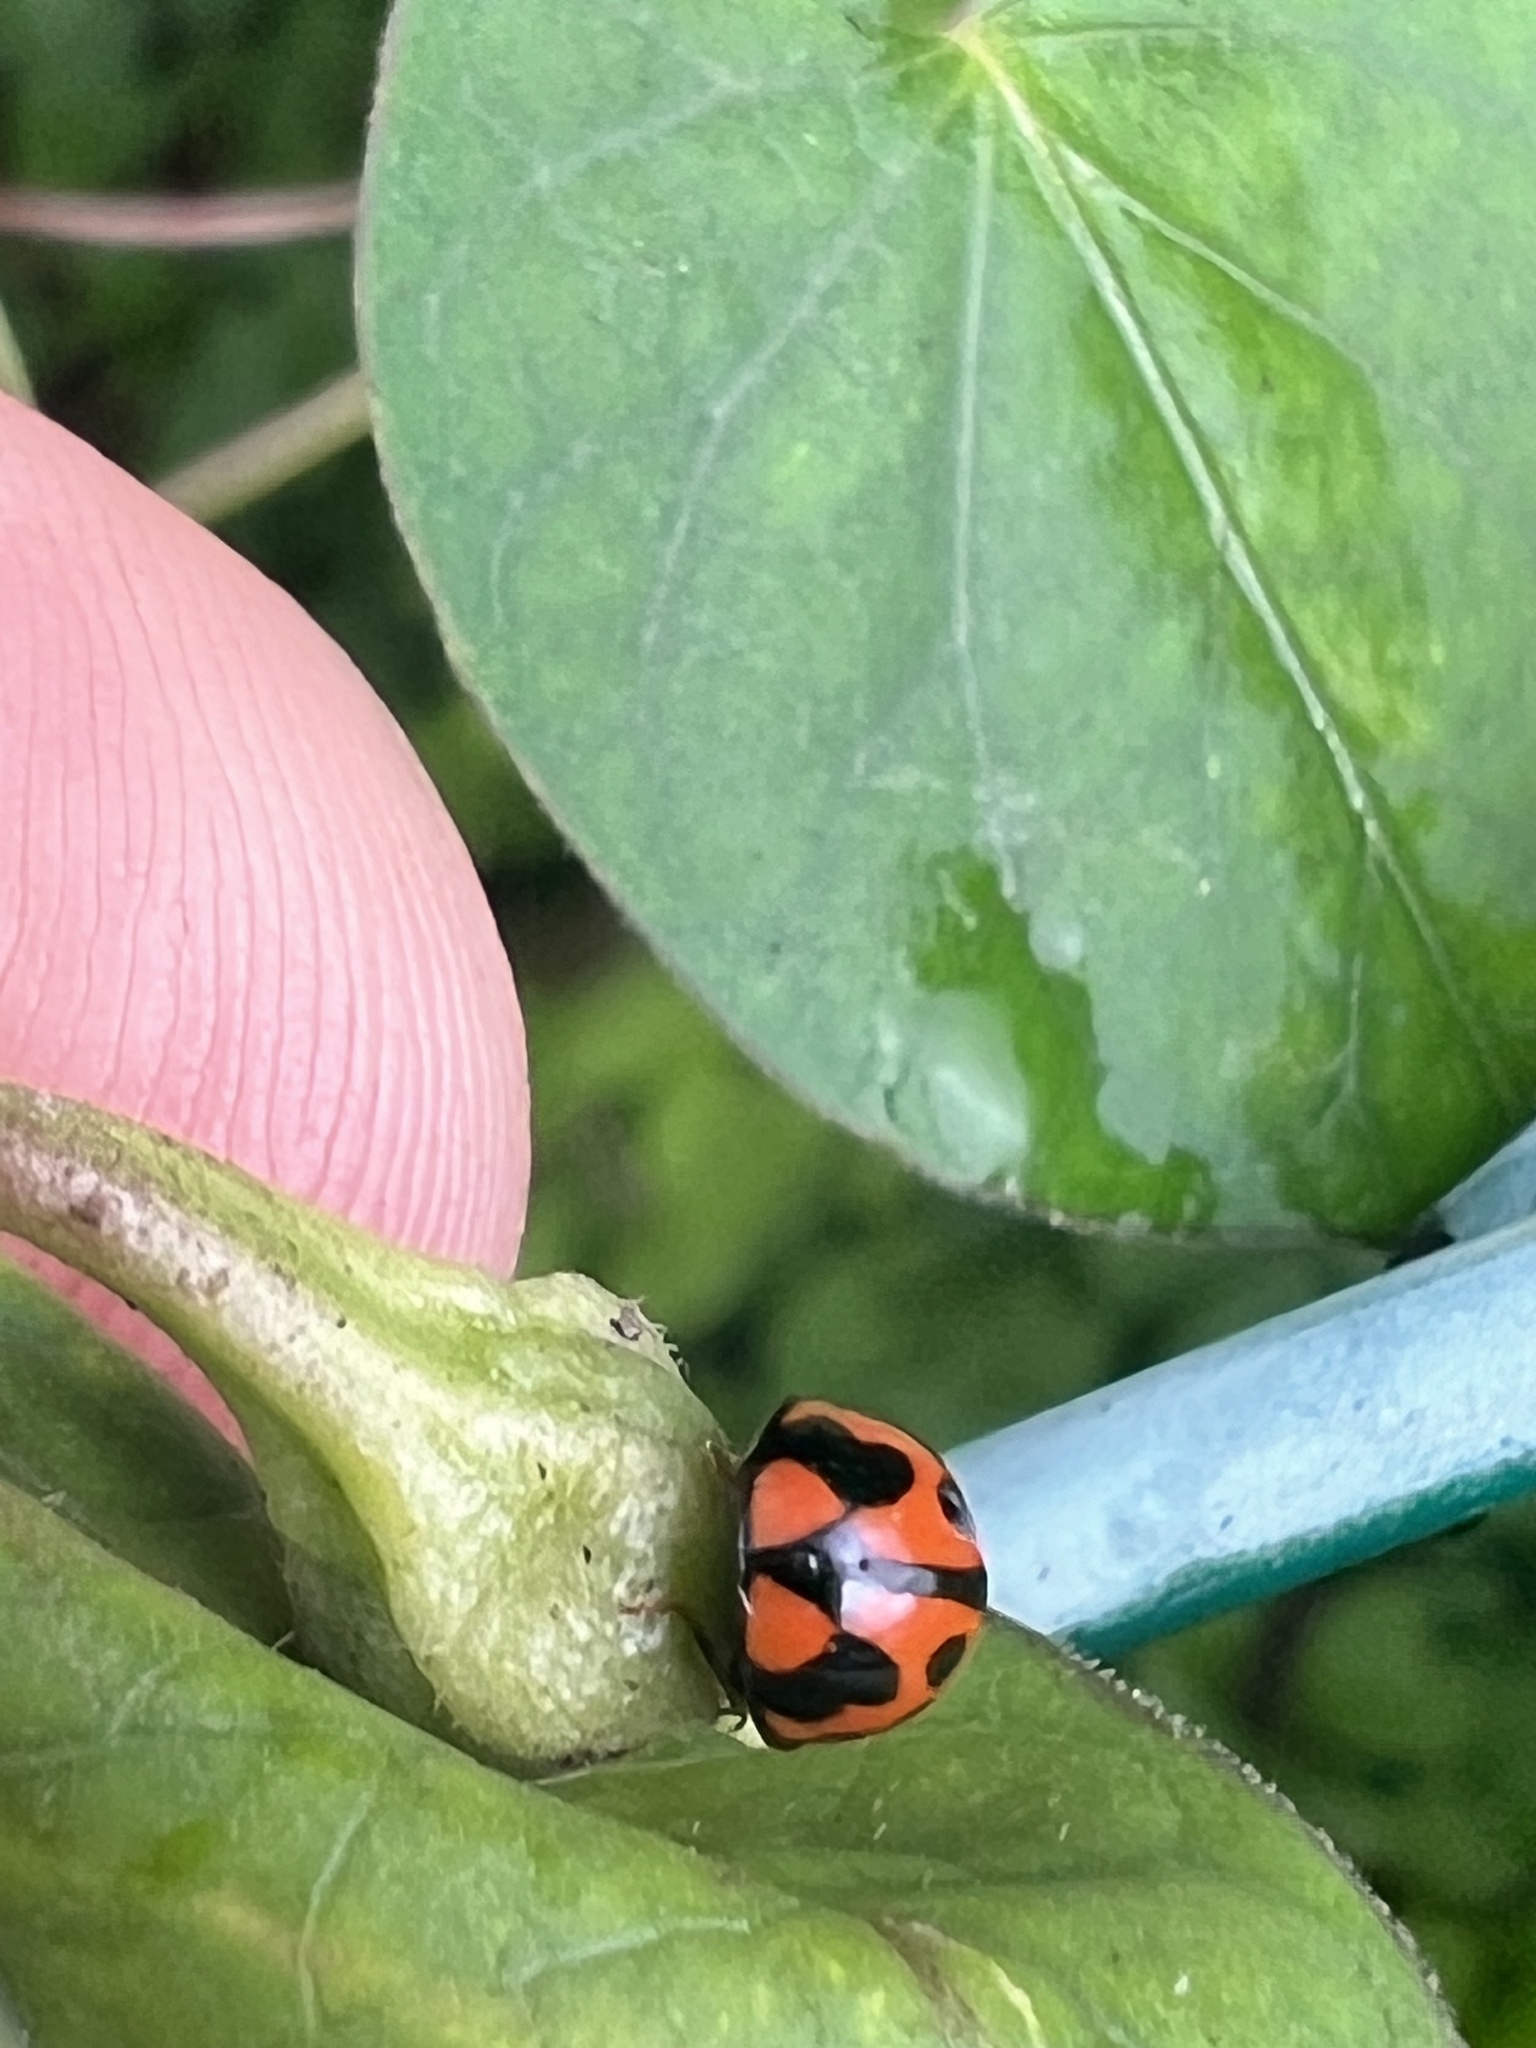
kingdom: Animalia
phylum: Arthropoda
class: Insecta
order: Coleoptera
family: Coccinellidae
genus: Coelophora
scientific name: Coelophora inaequalis
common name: Common australian lady beetle
